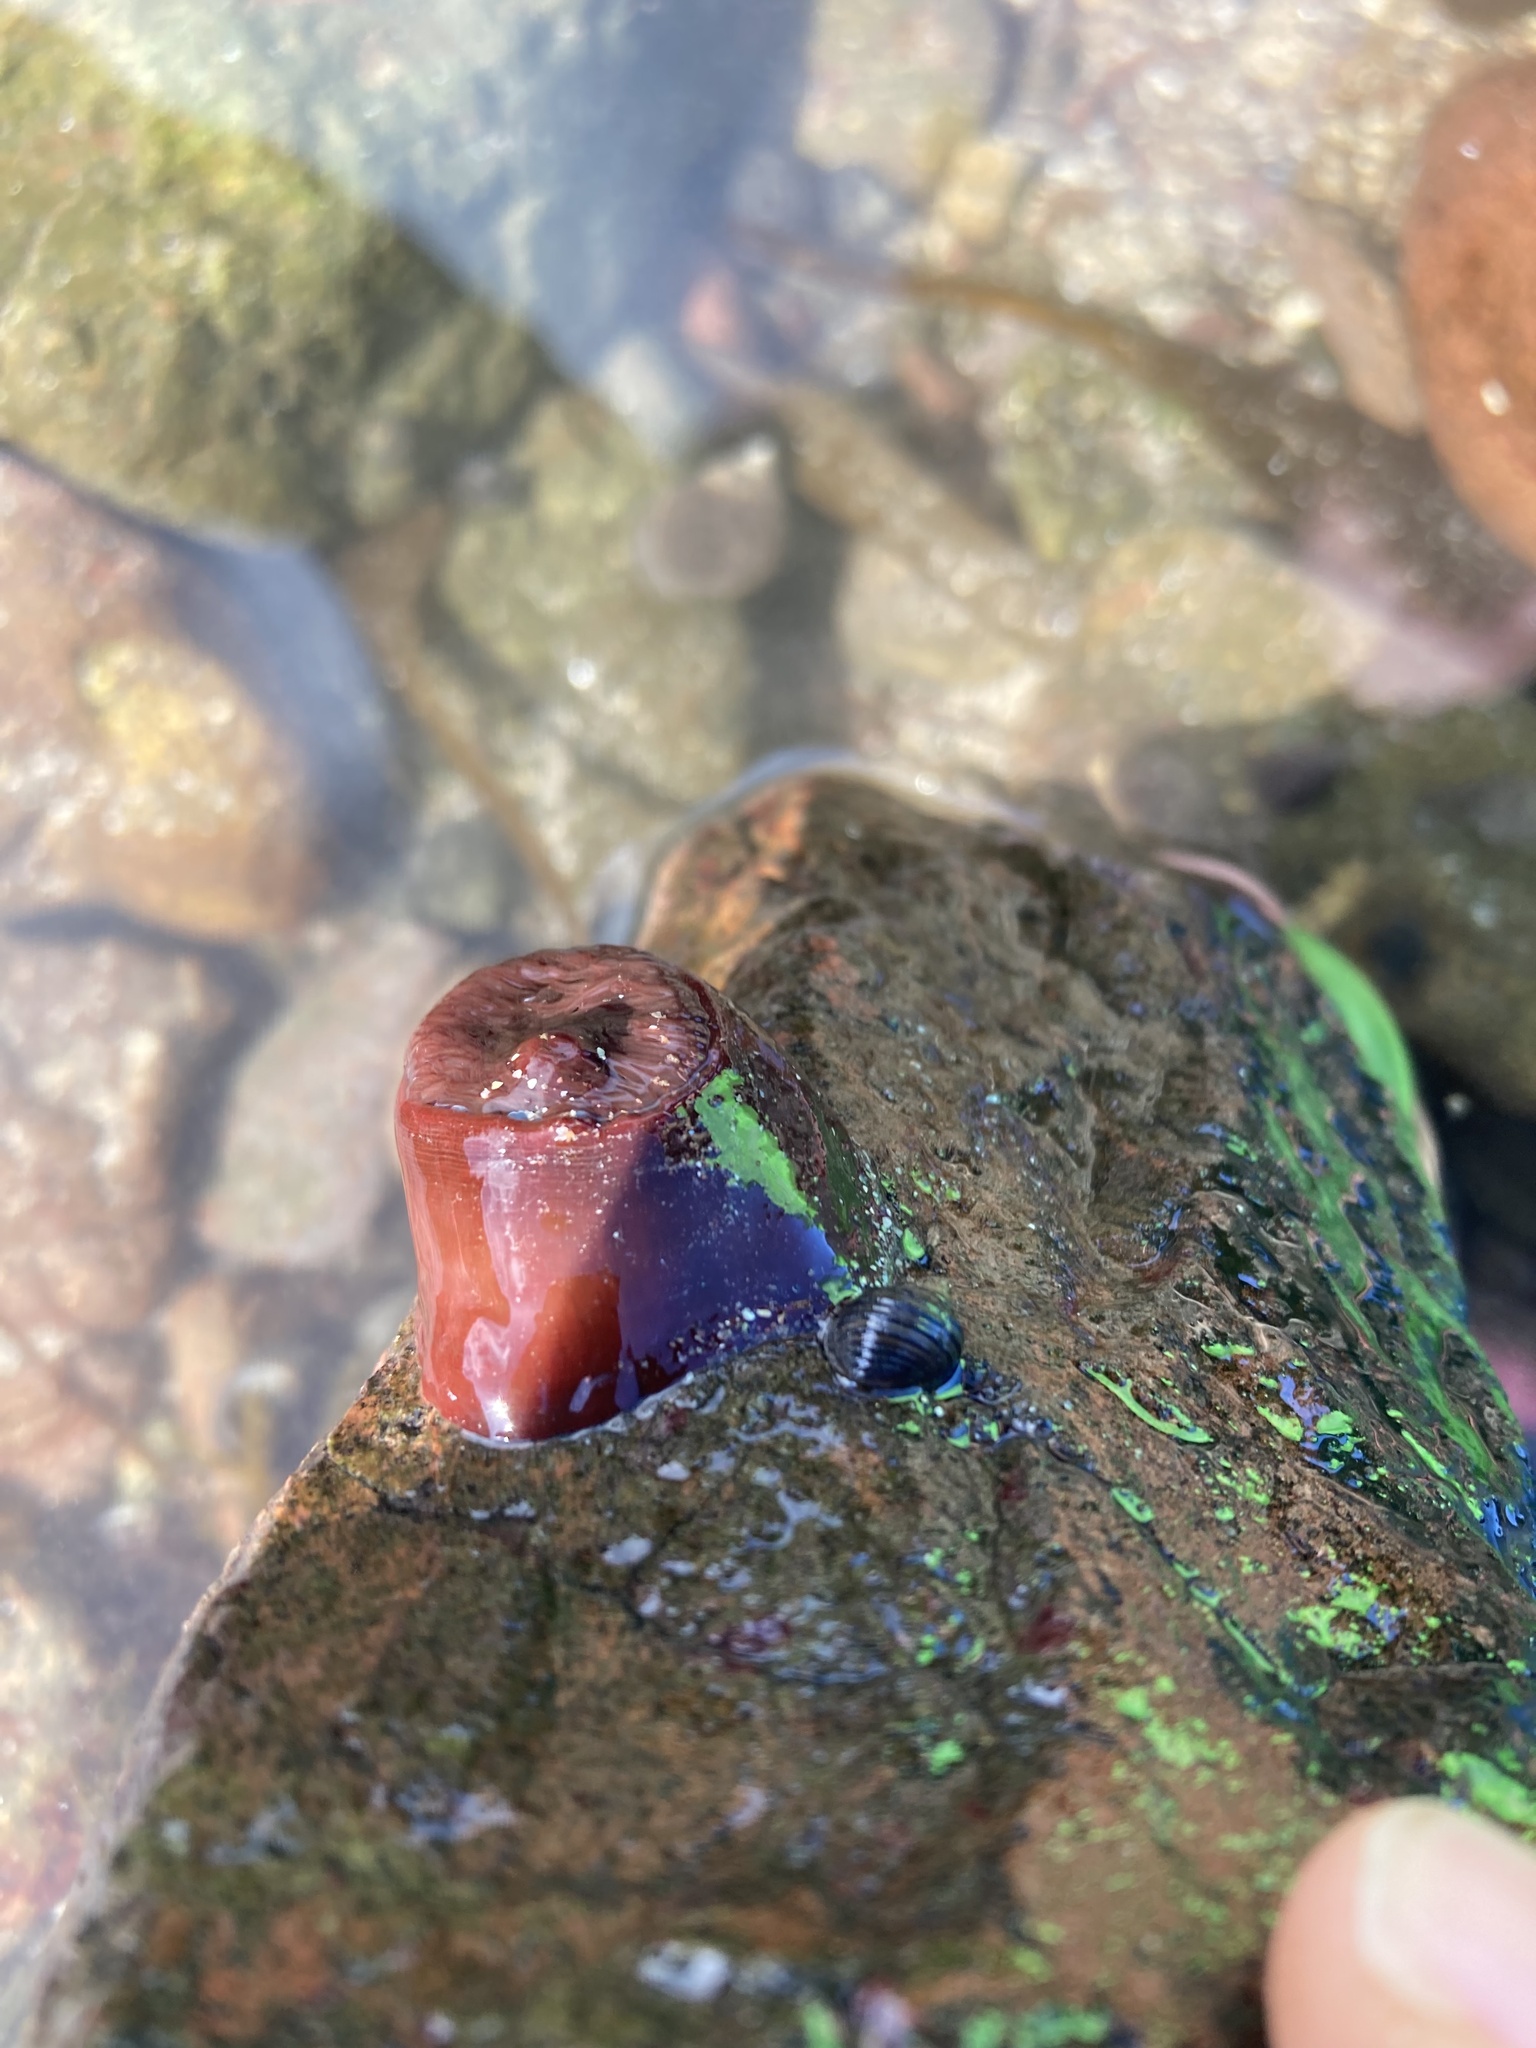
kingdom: Animalia
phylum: Cnidaria
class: Anthozoa
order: Actiniaria
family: Actiniidae
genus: Actinia
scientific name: Actinia equina
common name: Beadlet anemone
